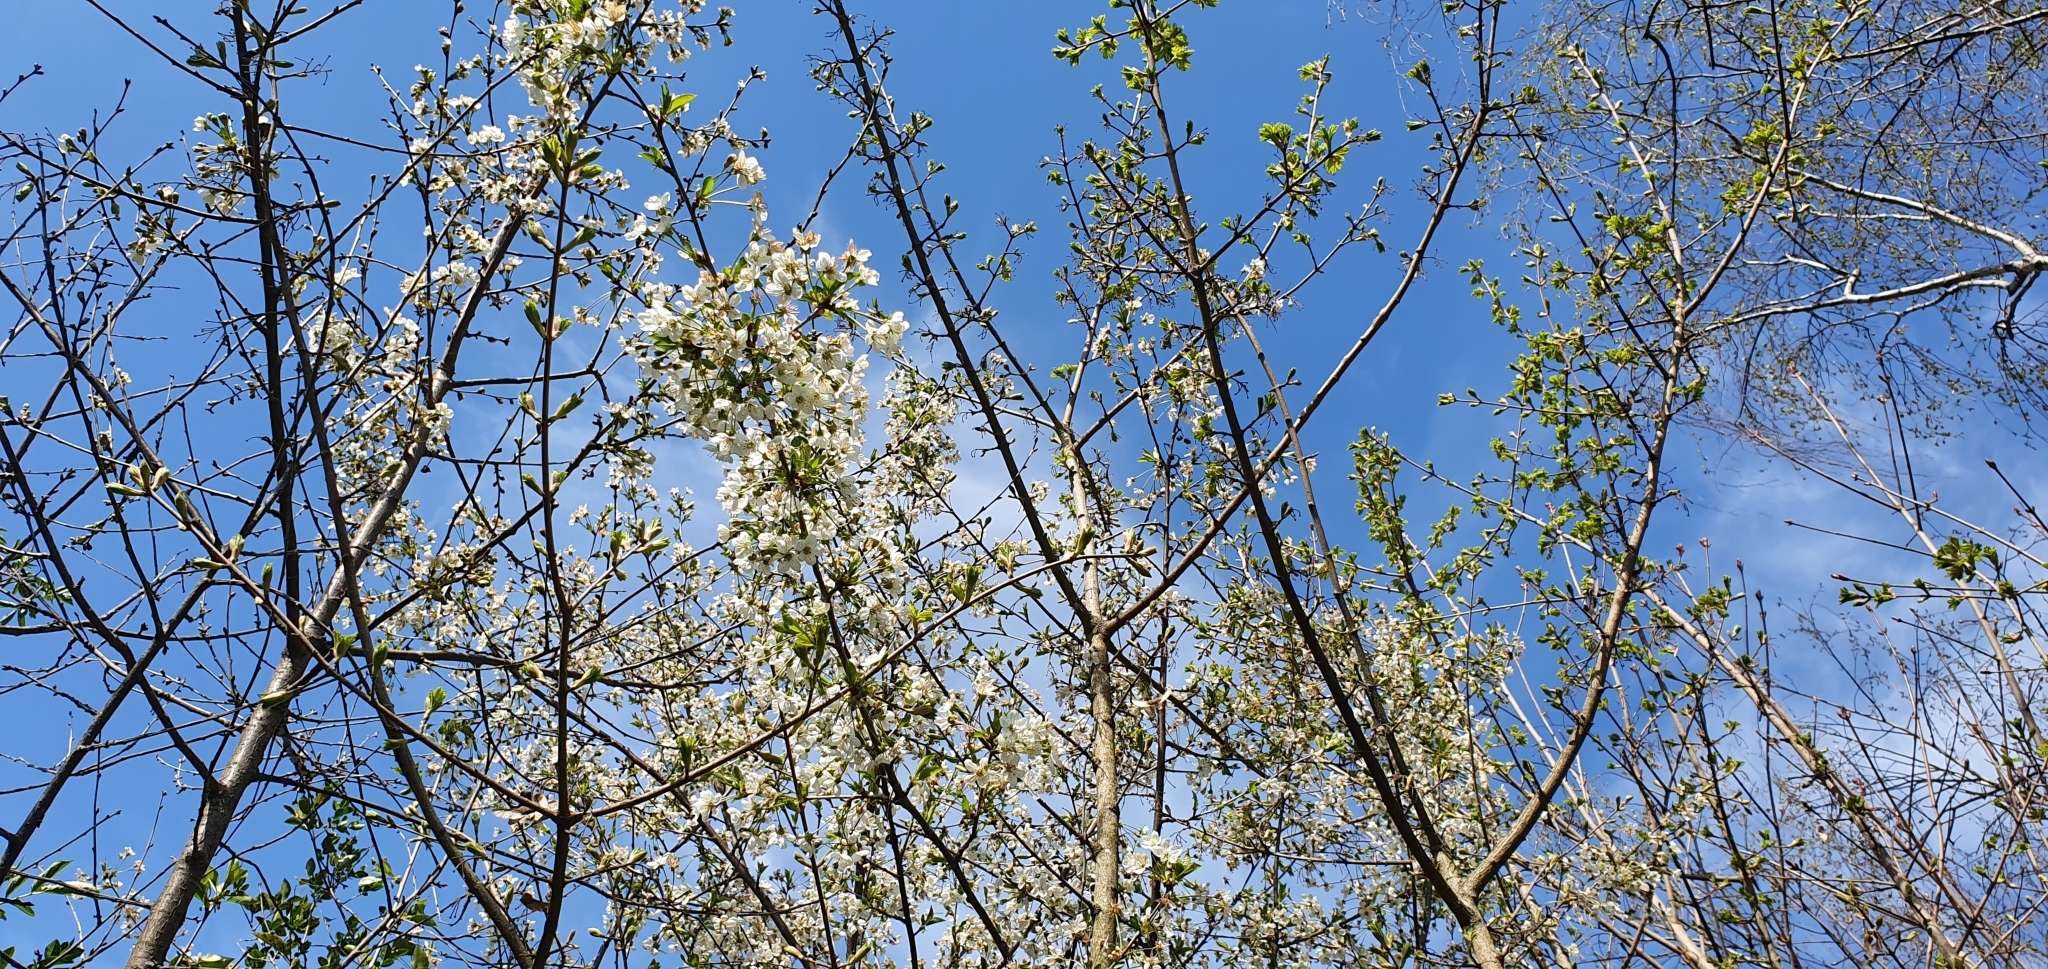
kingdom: Plantae
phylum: Tracheophyta
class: Magnoliopsida
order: Rosales
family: Rosaceae
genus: Prunus
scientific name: Prunus cerasus
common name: Morello cherry
